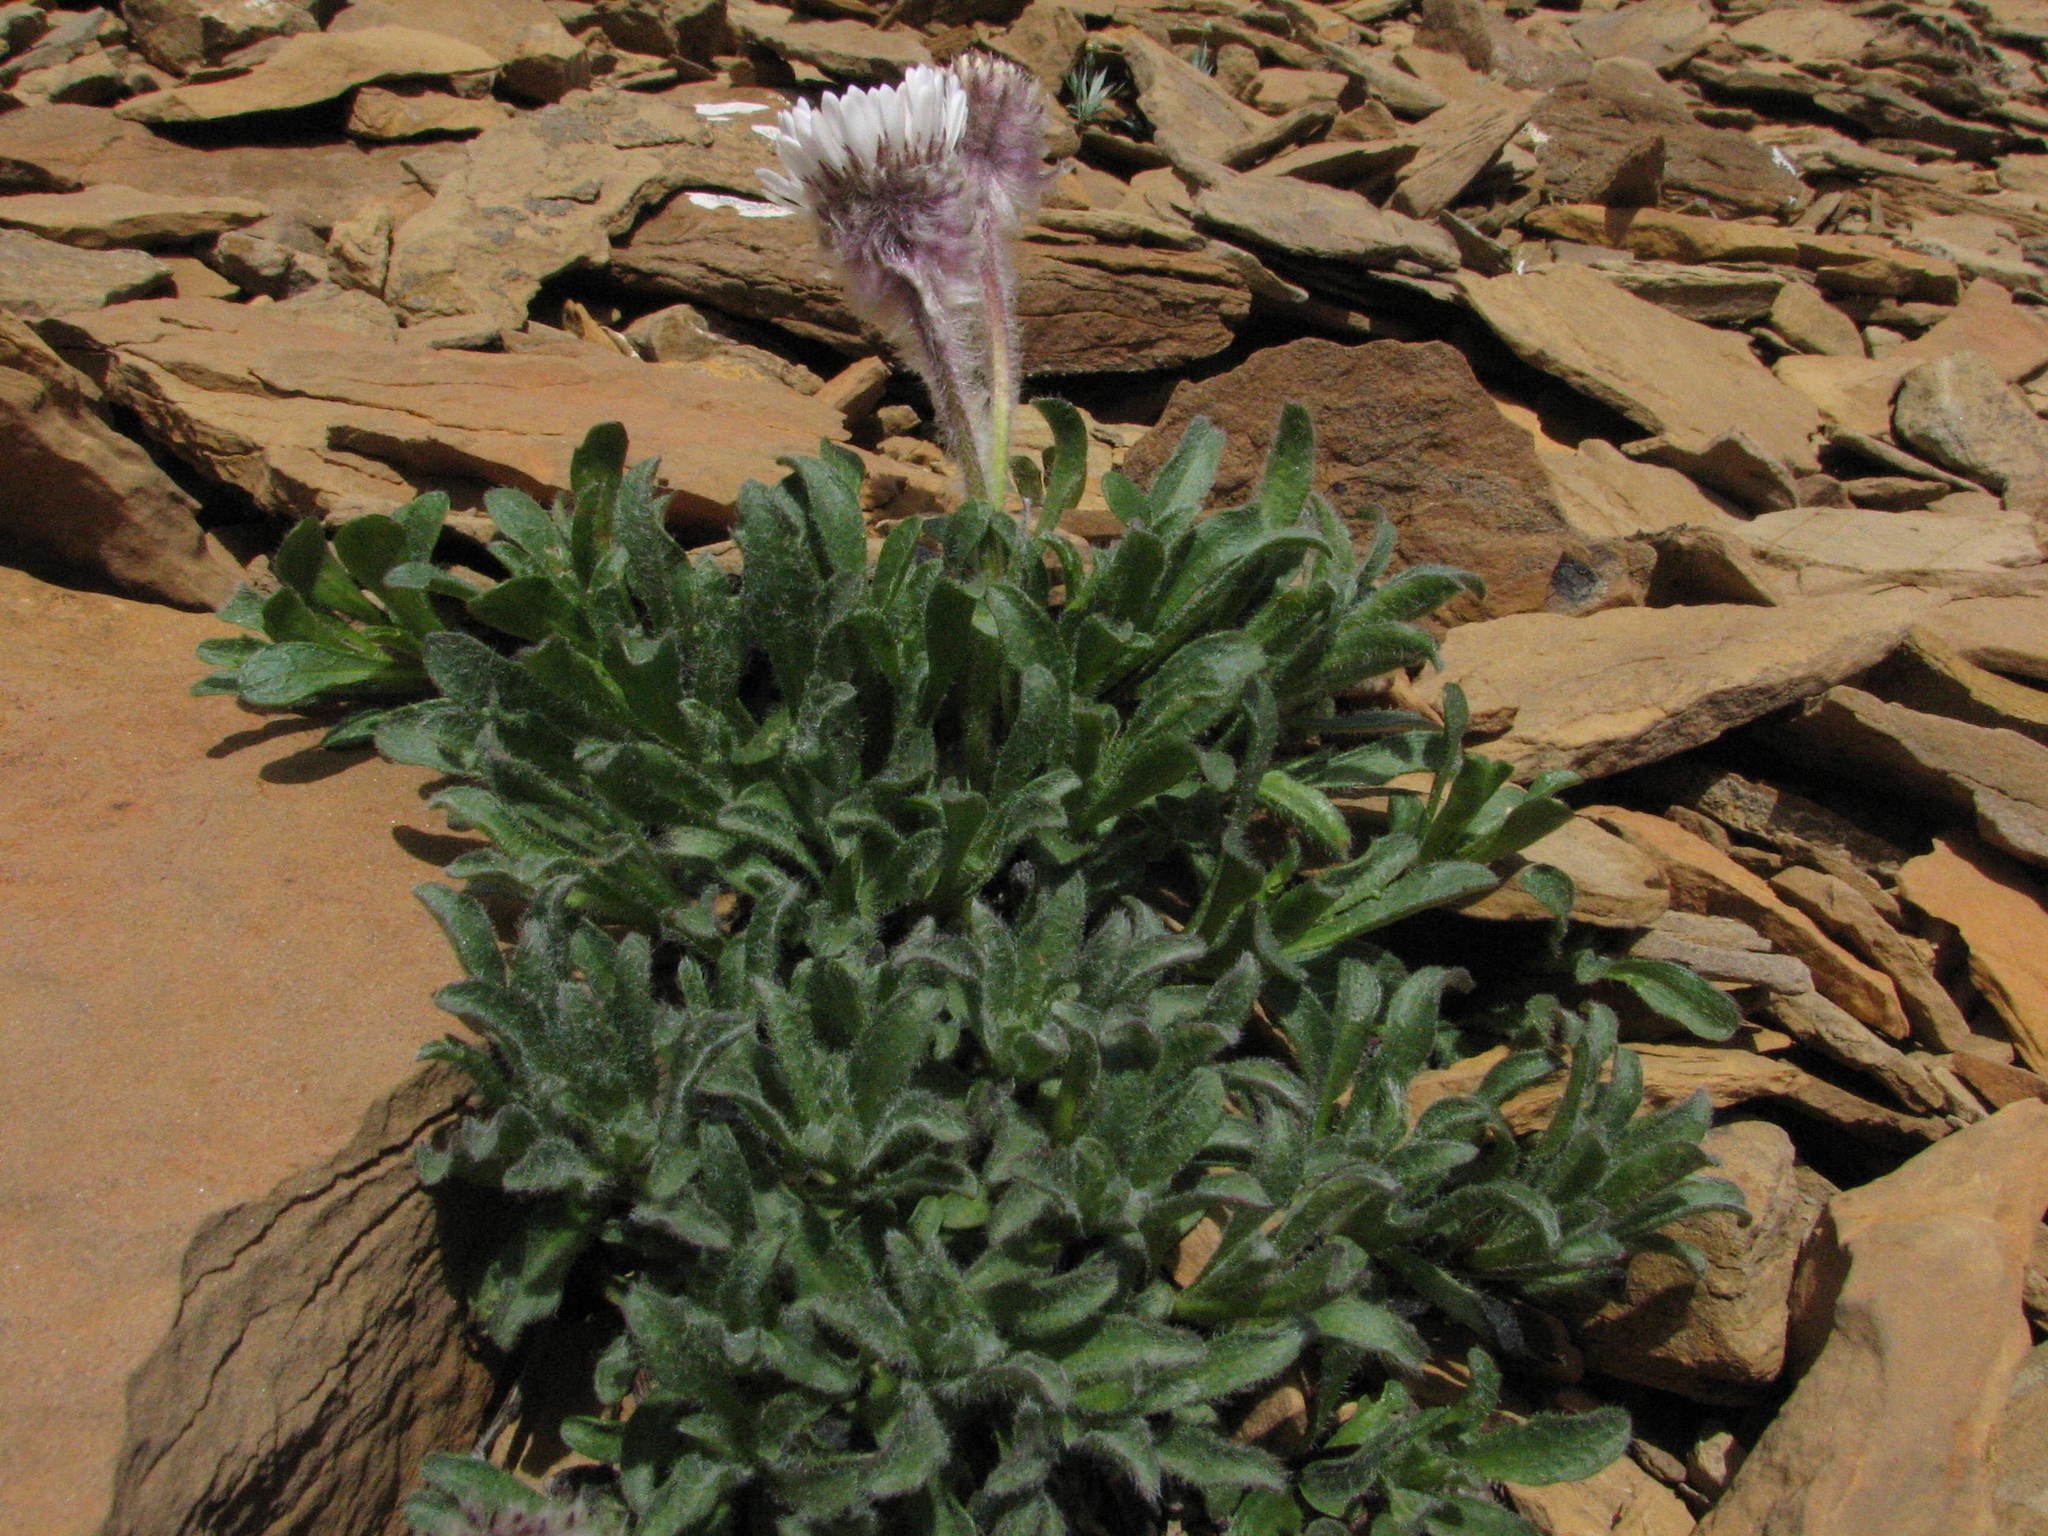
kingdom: Plantae
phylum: Tracheophyta
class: Magnoliopsida
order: Asterales
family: Asteraceae
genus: Erigeron
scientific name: Erigeron lanatus
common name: Hairy daisy
